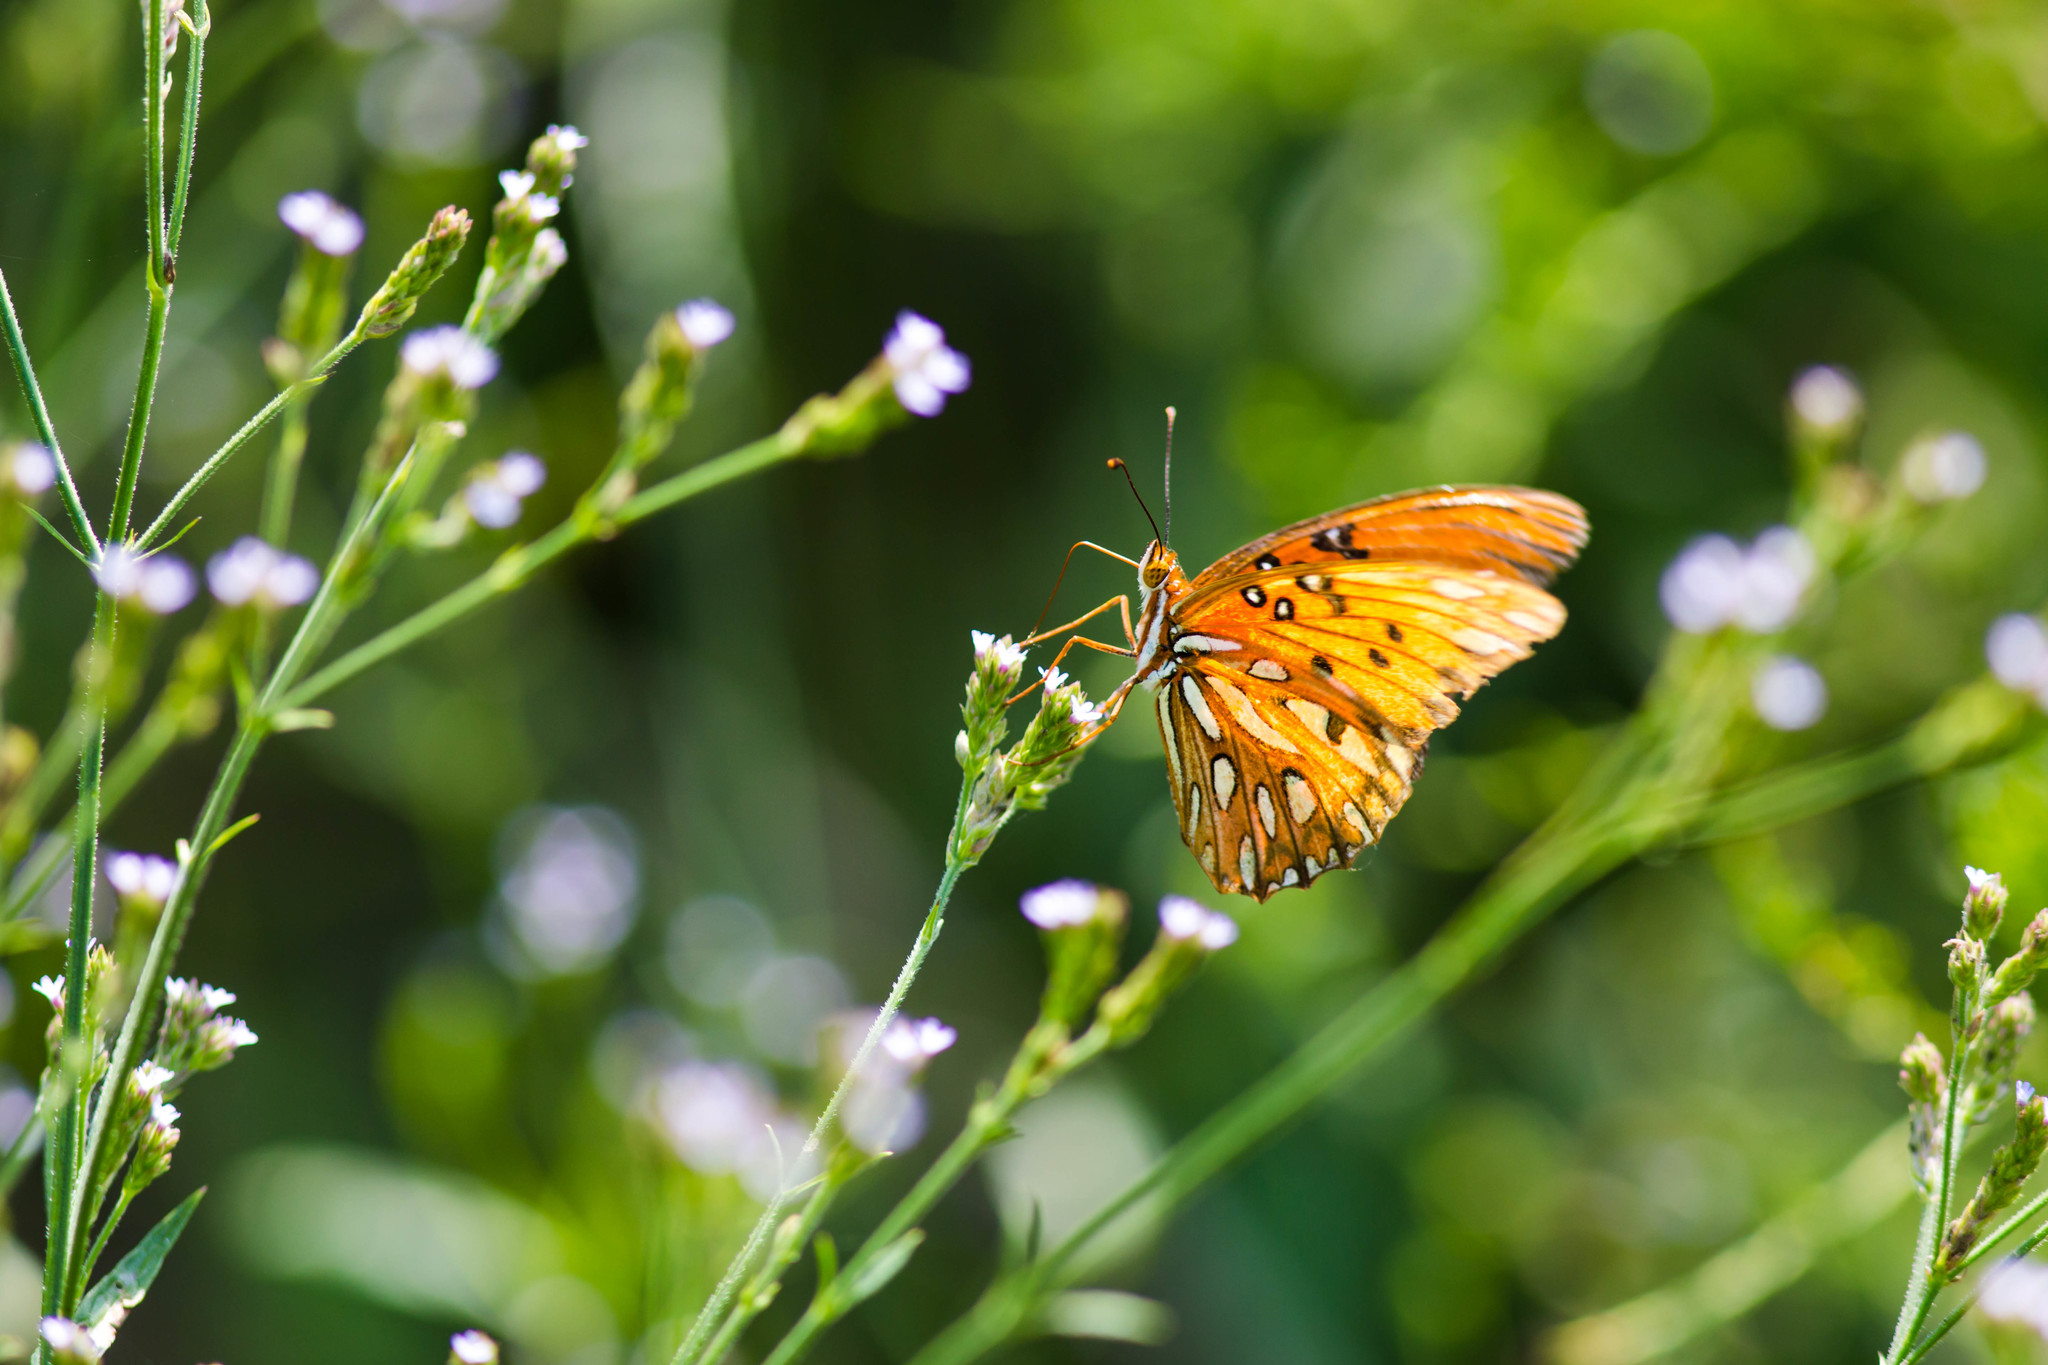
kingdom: Animalia
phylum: Arthropoda
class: Insecta
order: Lepidoptera
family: Nymphalidae
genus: Dione
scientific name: Dione vanillae
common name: Gulf fritillary
